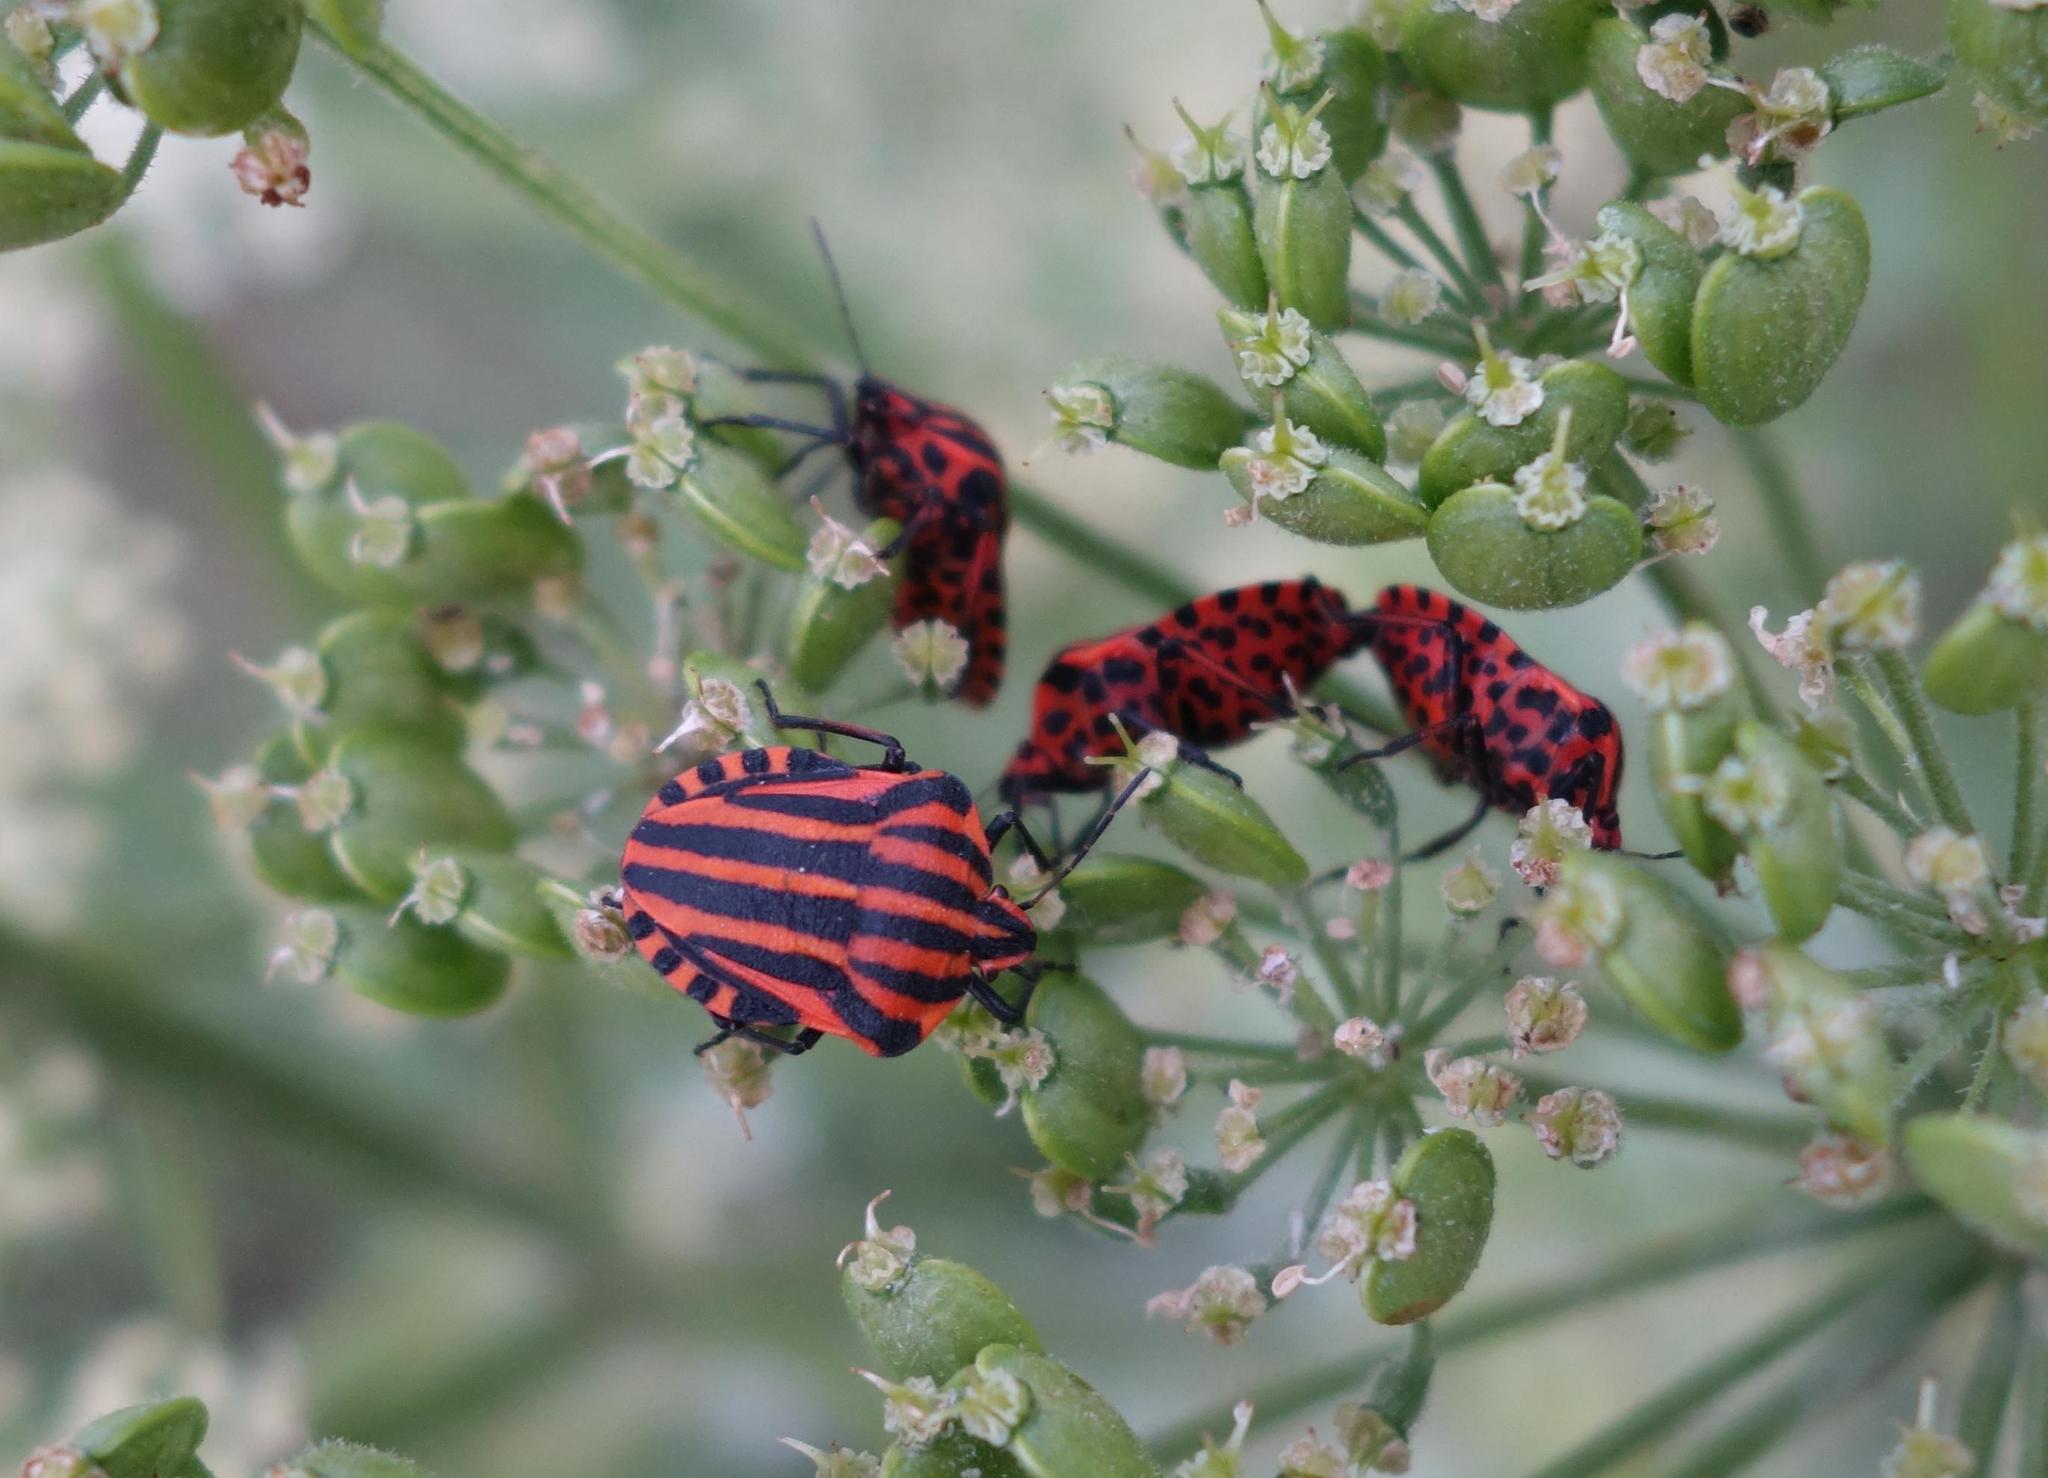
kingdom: Animalia
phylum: Arthropoda
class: Insecta
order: Hemiptera
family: Pentatomidae
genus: Graphosoma
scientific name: Graphosoma italicum
